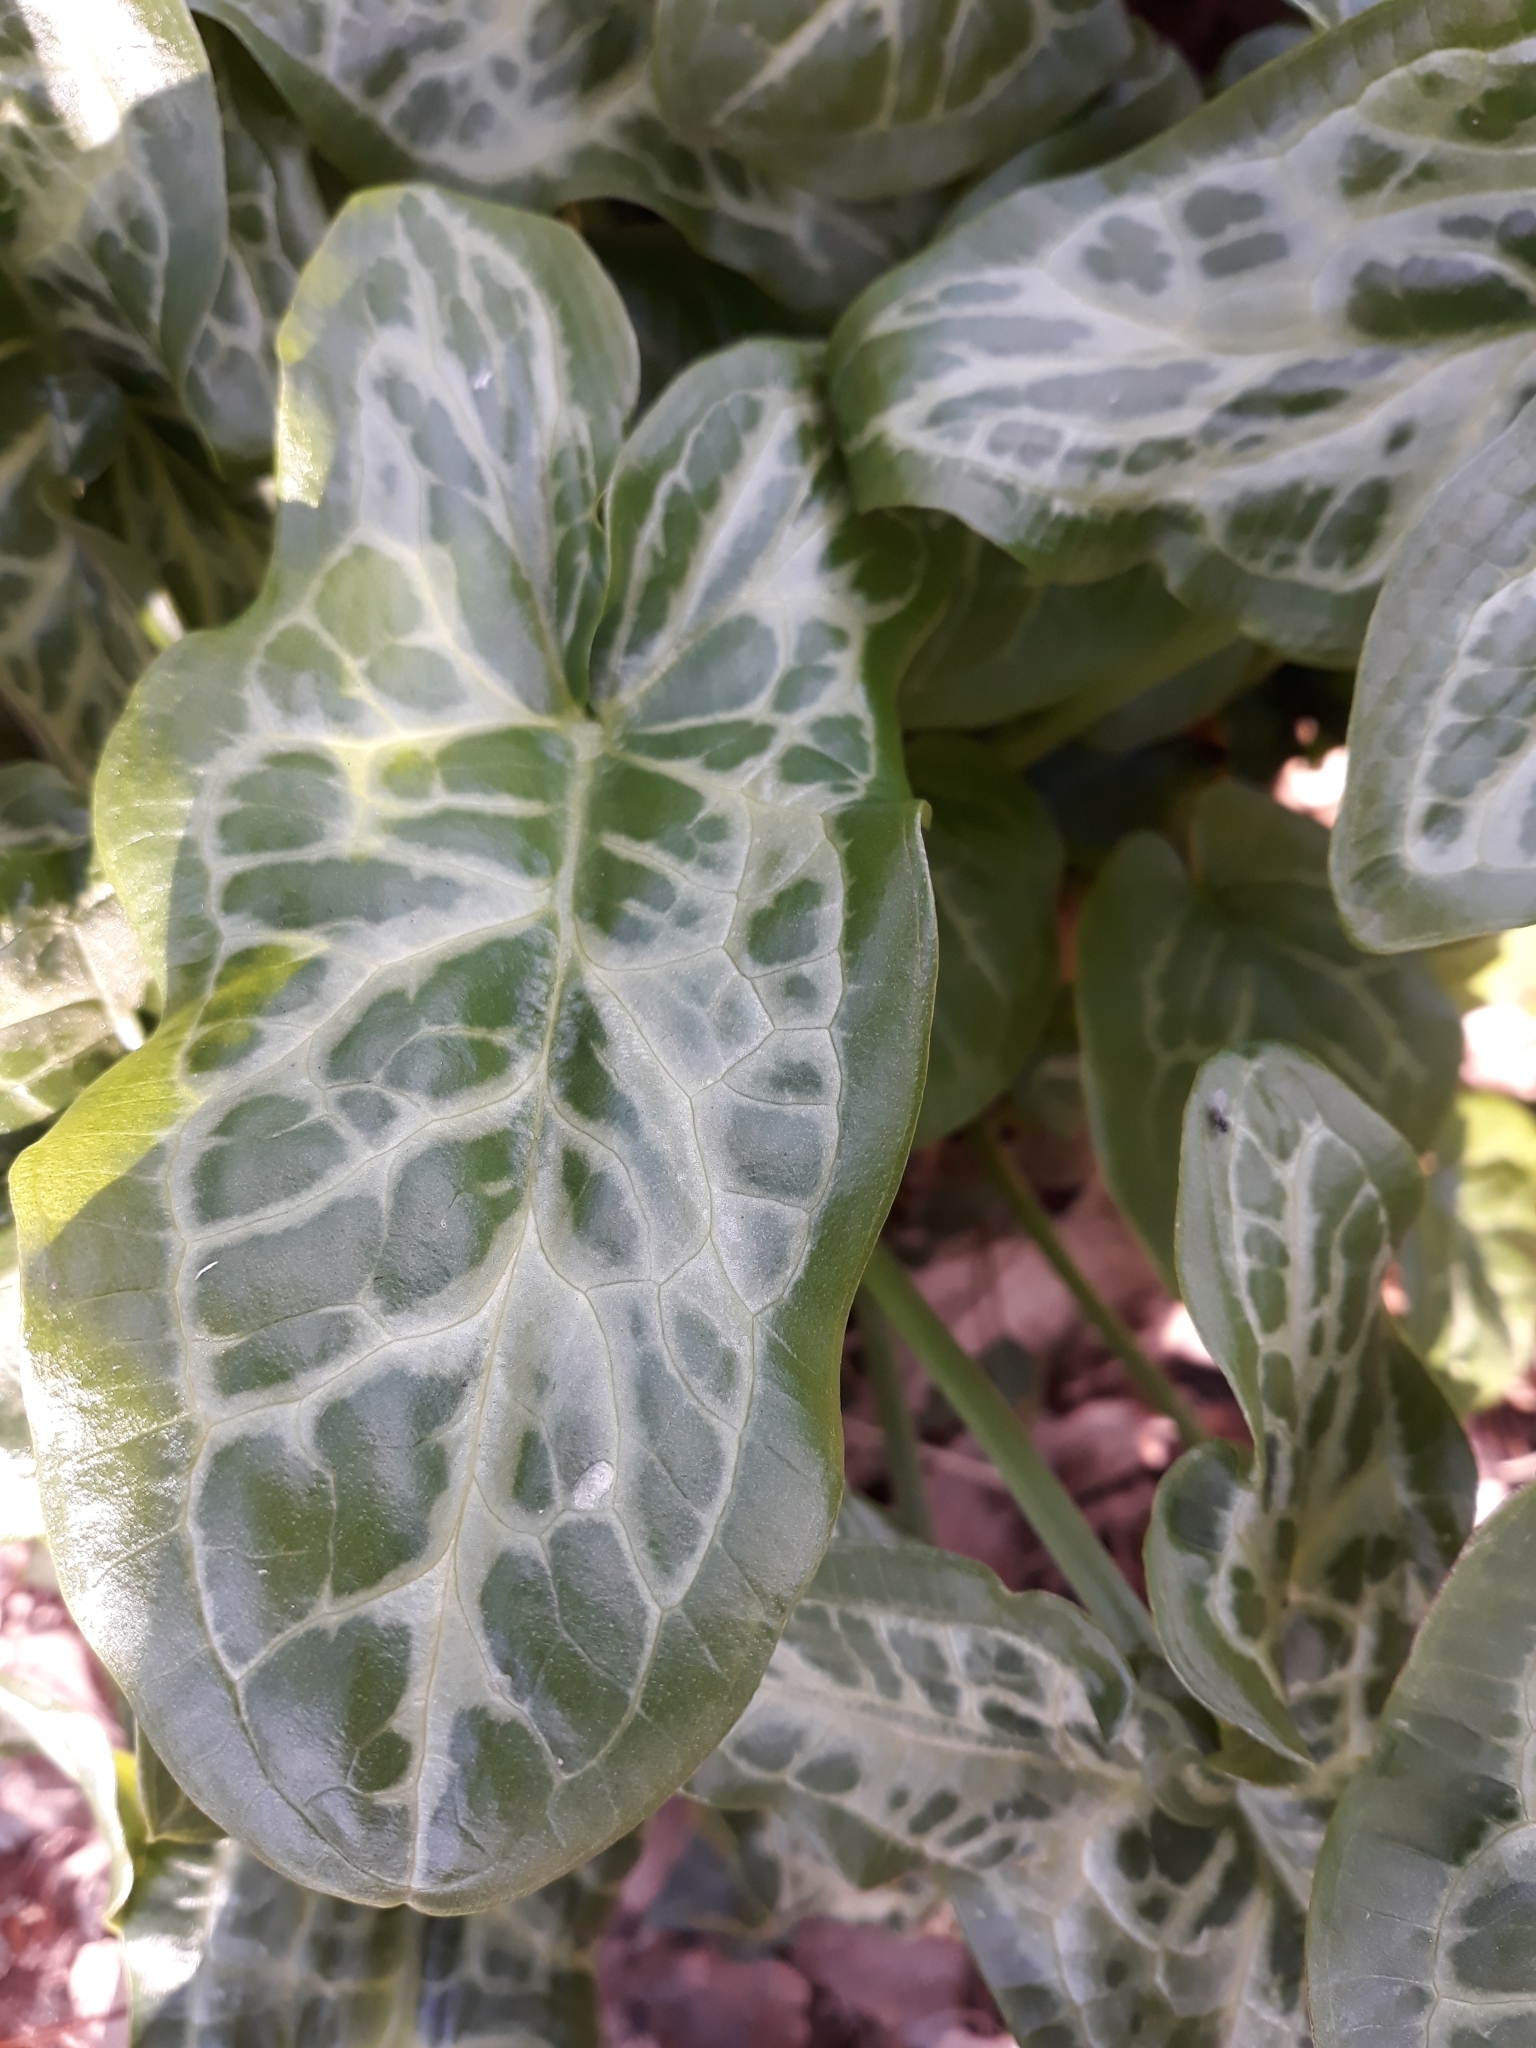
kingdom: Plantae
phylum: Tracheophyta
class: Liliopsida
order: Alismatales
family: Araceae
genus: Arum
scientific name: Arum italicum
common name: Italian lords-and-ladies
